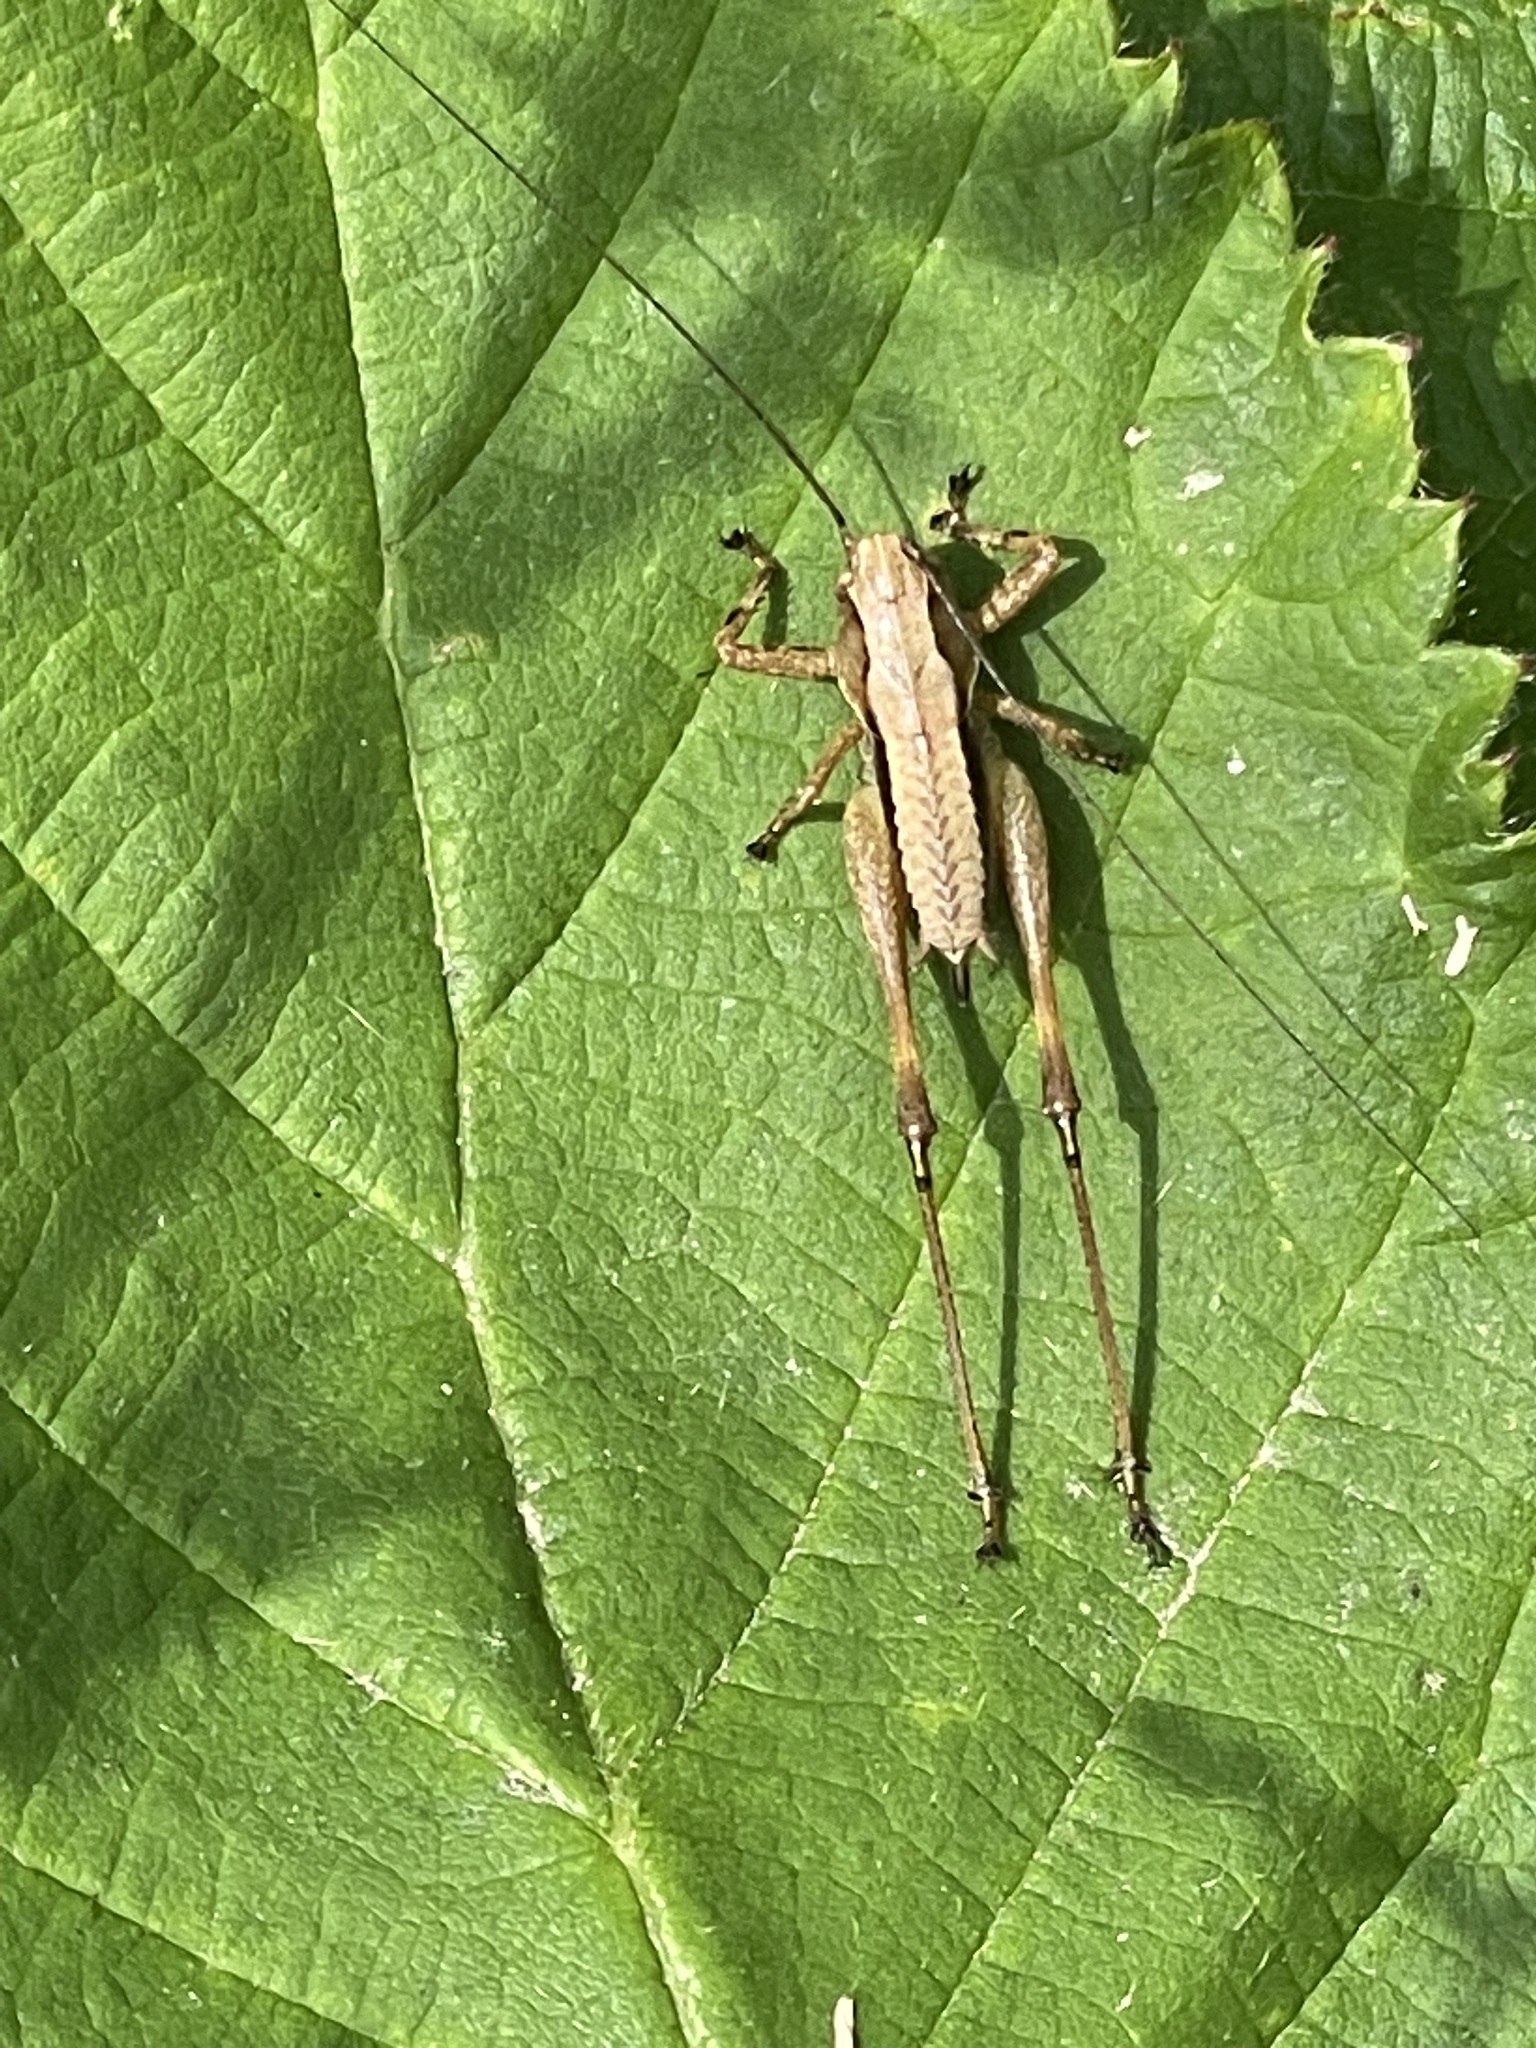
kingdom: Animalia
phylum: Arthropoda
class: Insecta
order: Orthoptera
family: Tettigoniidae
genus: Pholidoptera
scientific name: Pholidoptera griseoaptera
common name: Dark bush-cricket
